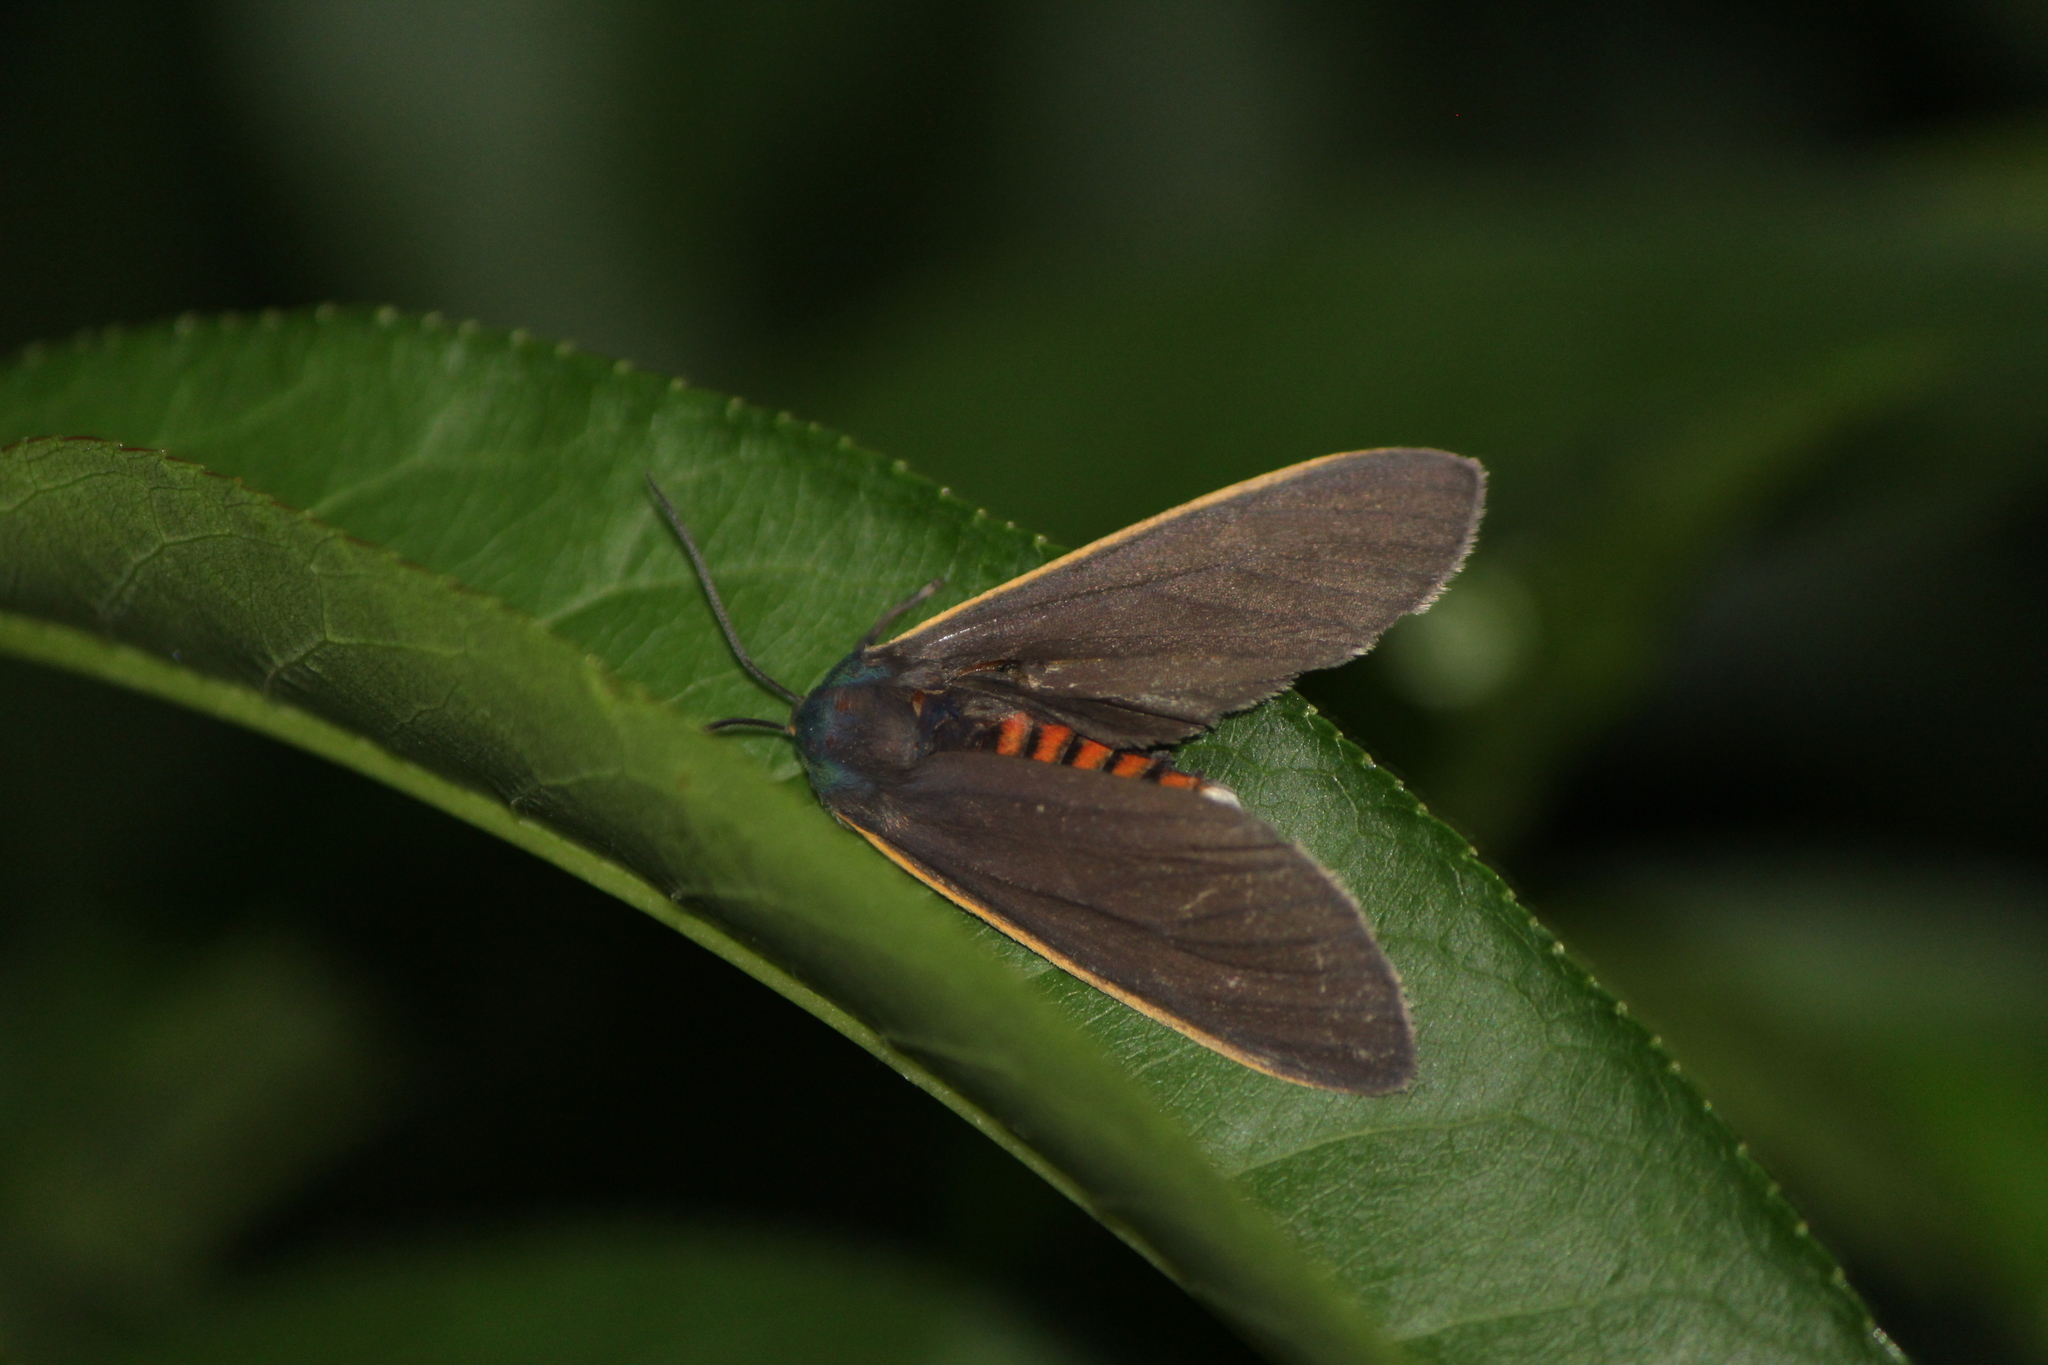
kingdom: Animalia
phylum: Arthropoda
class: Insecta
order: Lepidoptera
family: Erebidae
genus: Euchaetes
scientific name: Euchaetes antica
